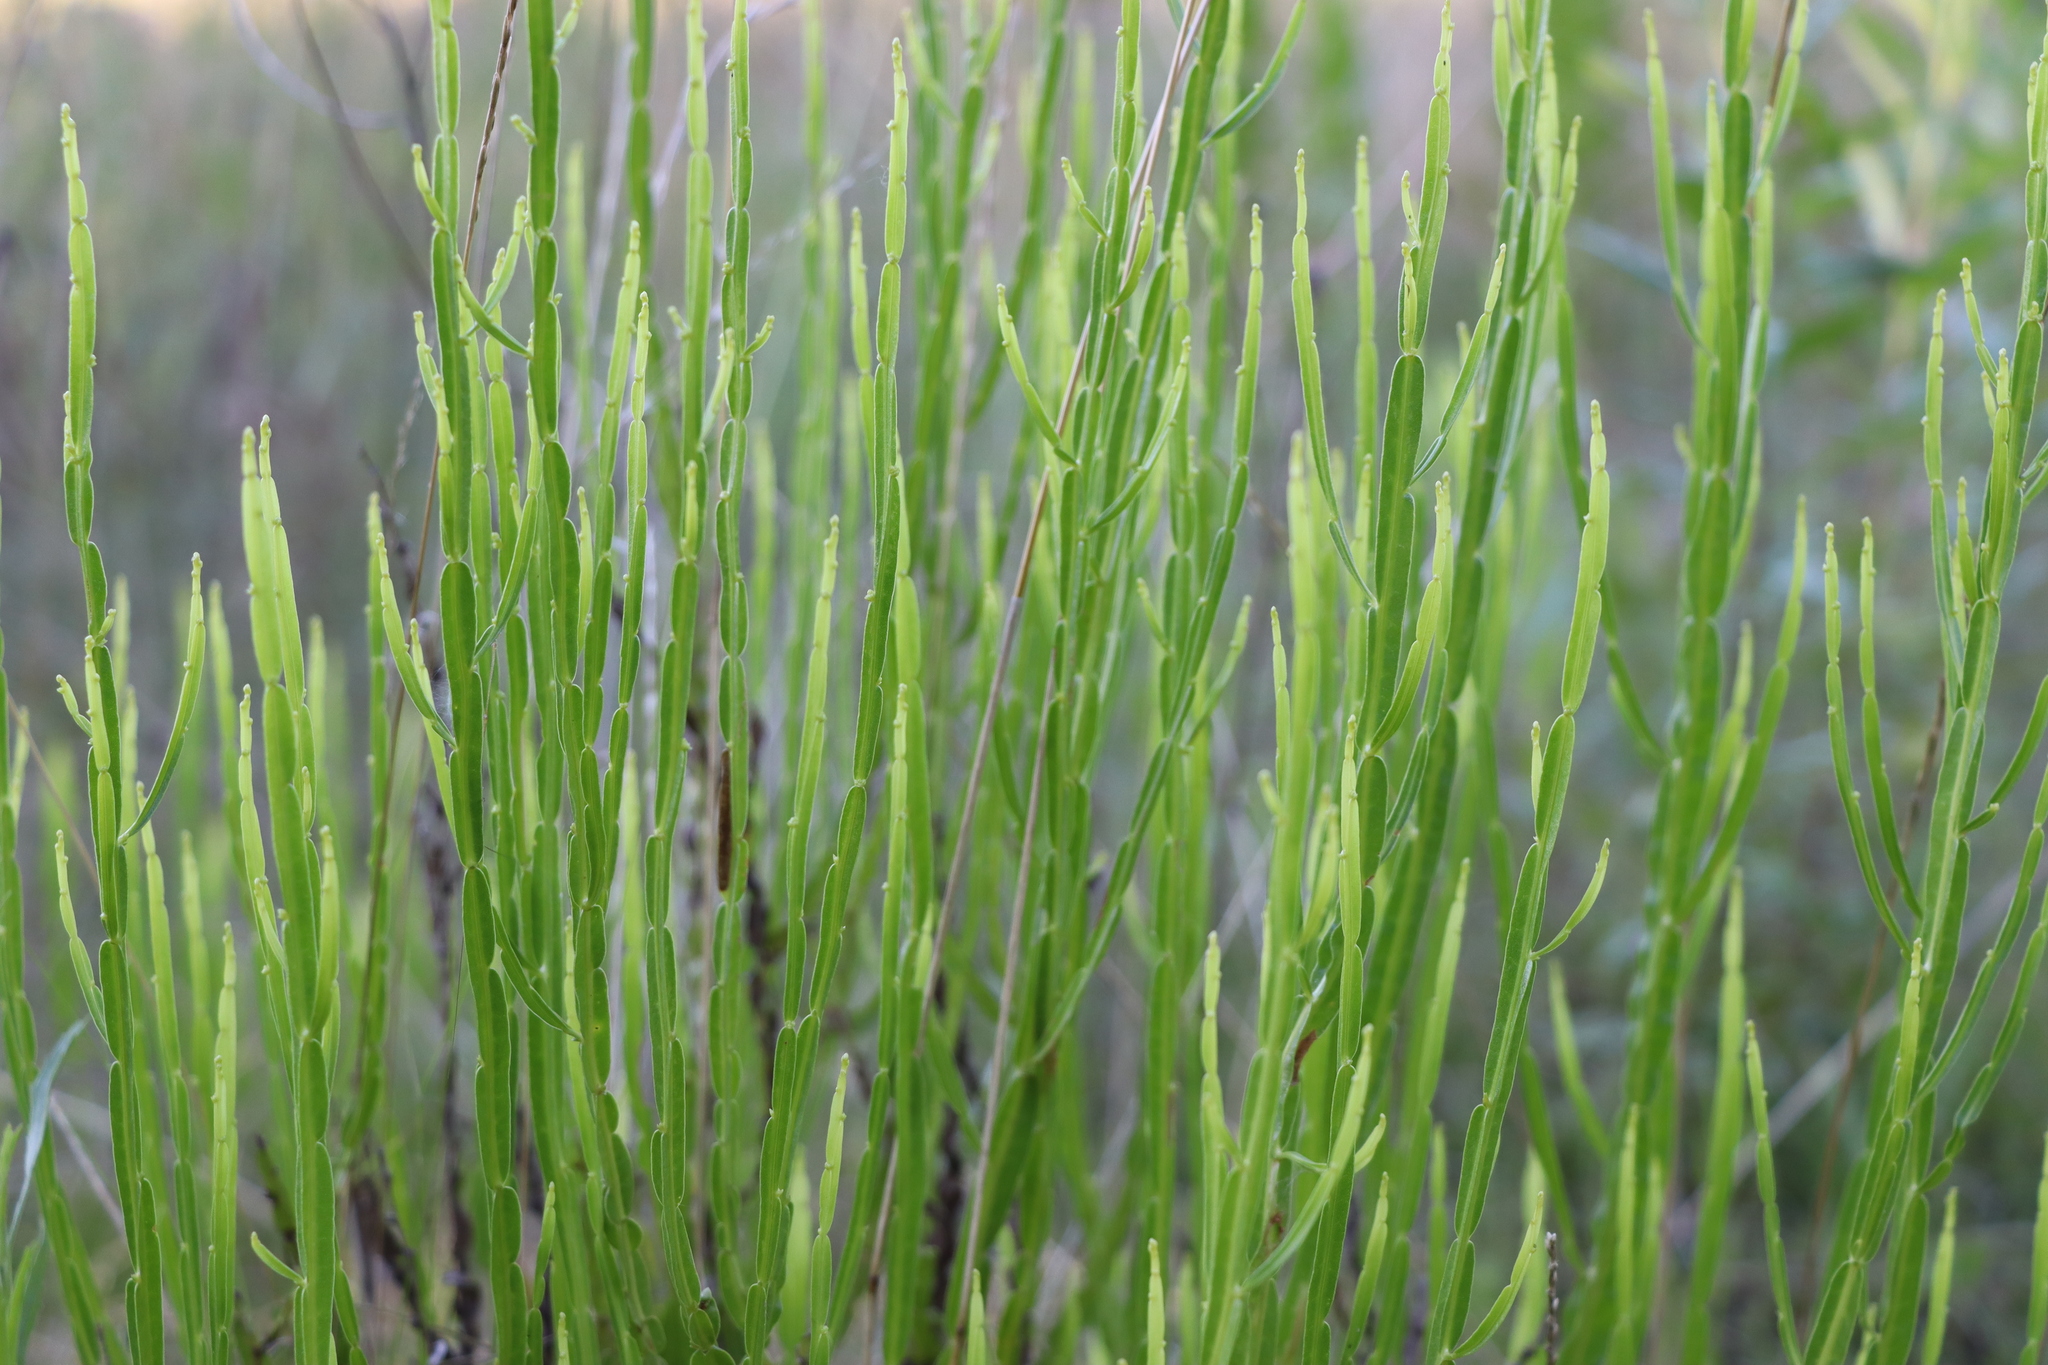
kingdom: Plantae
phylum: Tracheophyta
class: Magnoliopsida
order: Asterales
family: Asteraceae
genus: Baccharis
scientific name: Baccharis trimera
